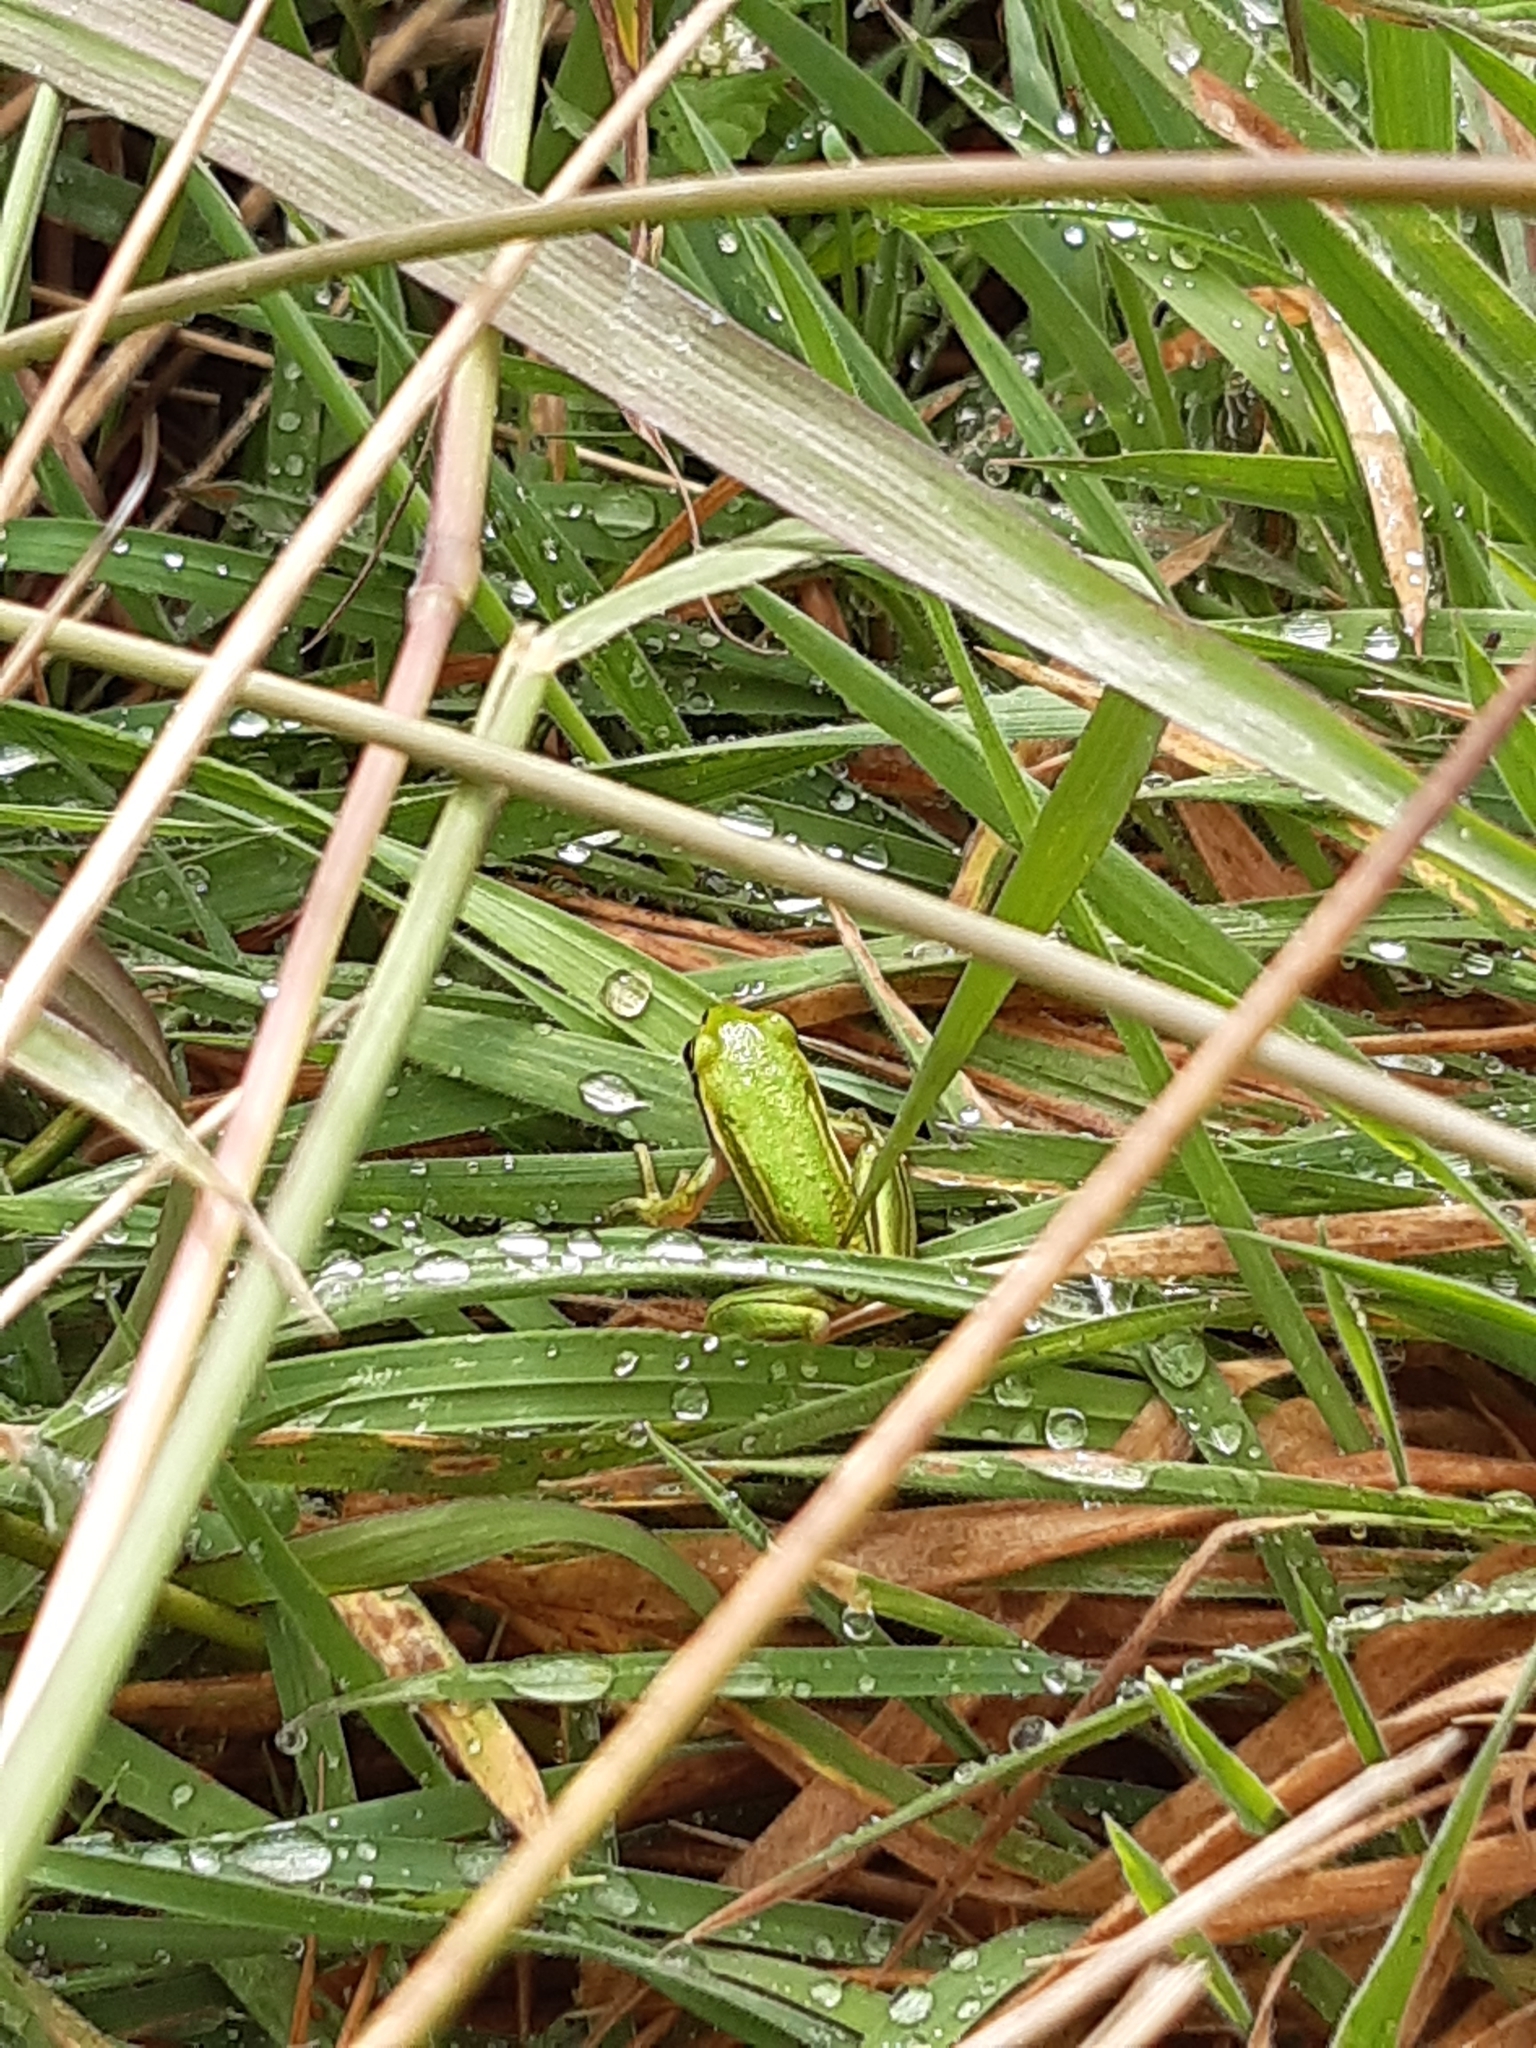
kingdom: Animalia
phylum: Chordata
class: Amphibia
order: Anura
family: Pelodryadidae
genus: Ranoidea
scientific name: Ranoidea aurea
